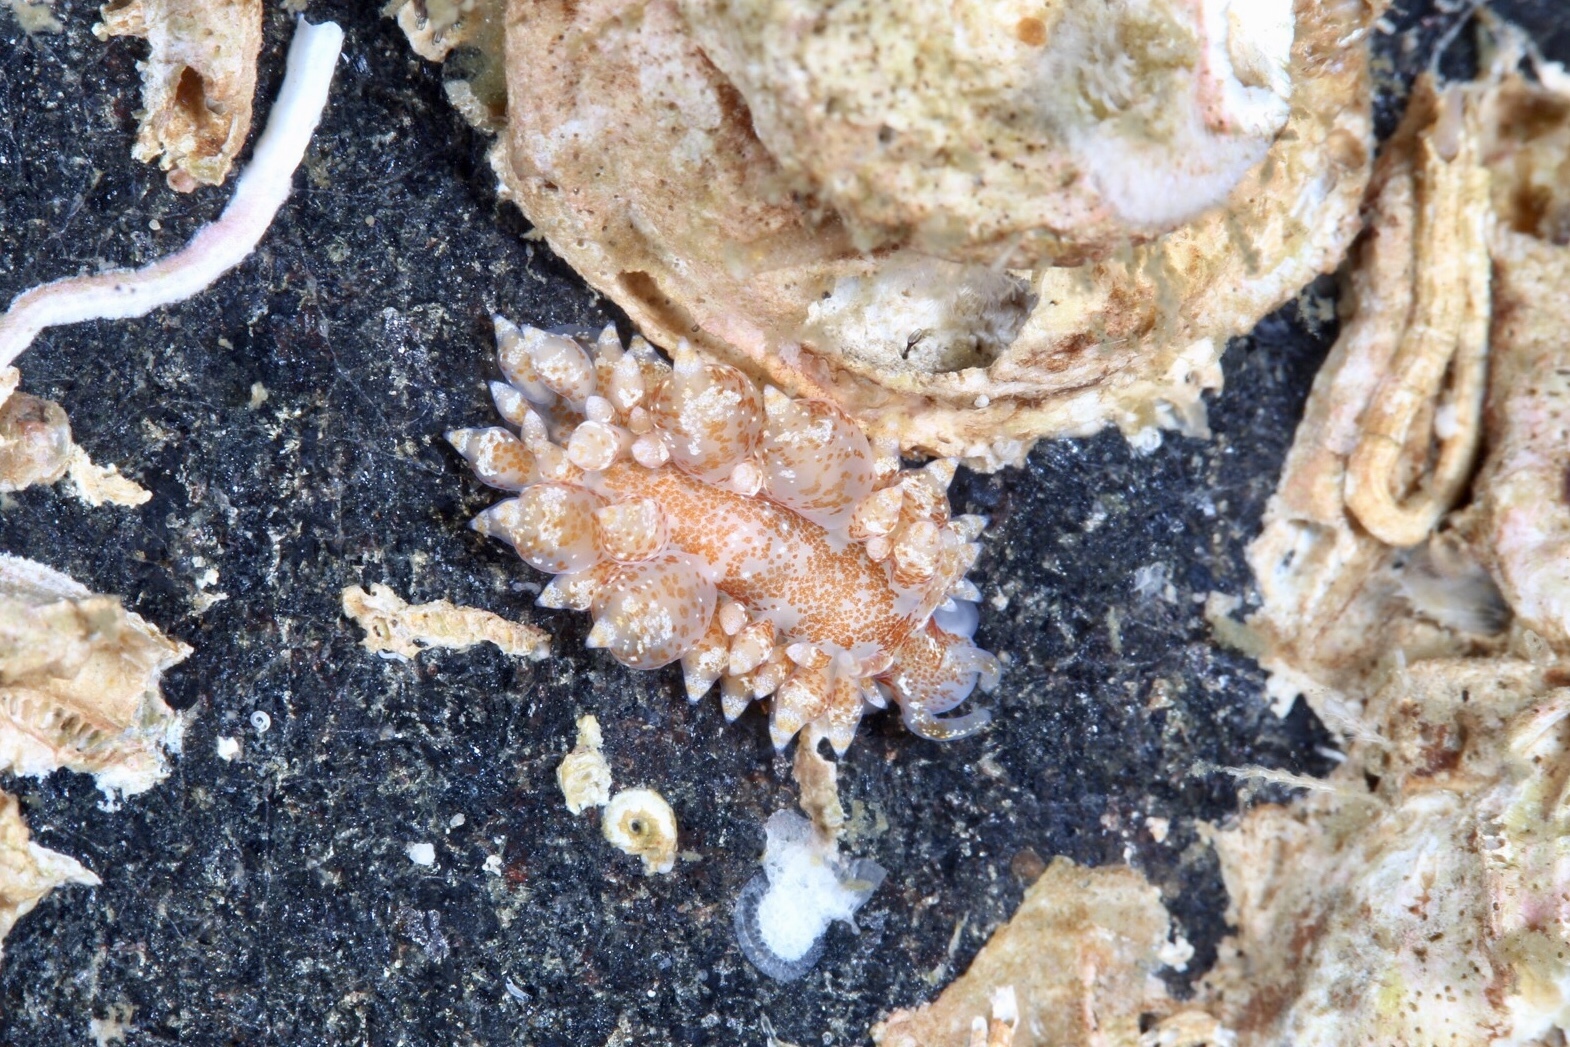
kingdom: Animalia
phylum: Mollusca
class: Gastropoda
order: Nudibranchia
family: Eubranchidae
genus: Amphorina
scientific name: Amphorina pallida
